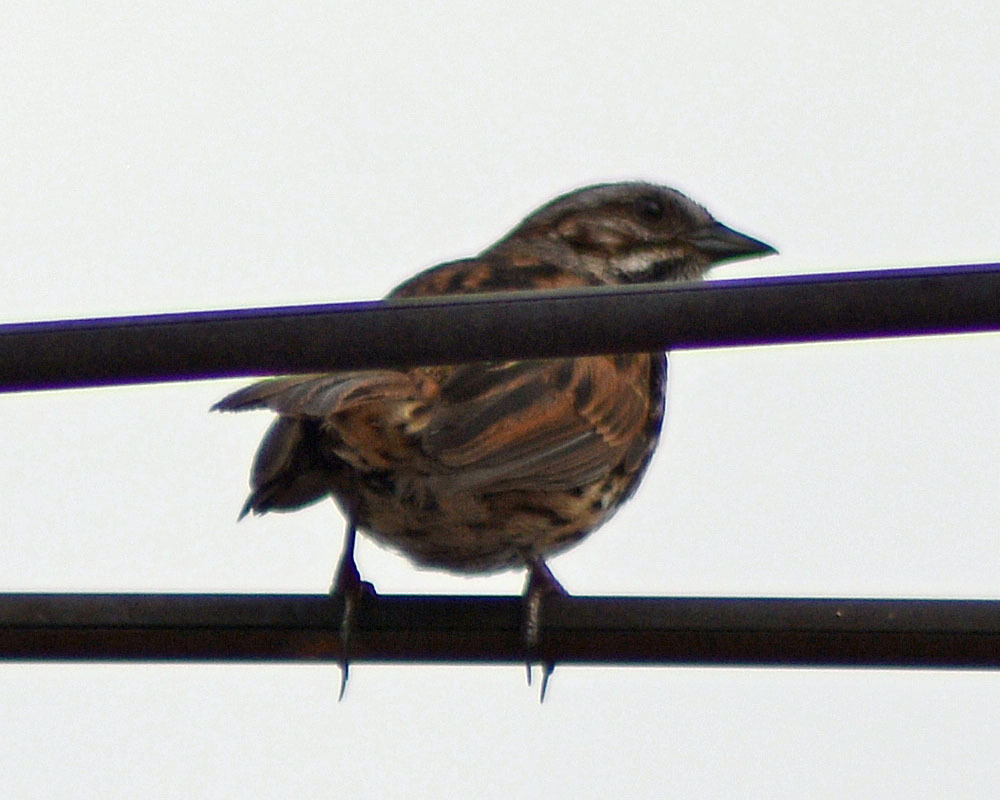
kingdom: Animalia
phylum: Chordata
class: Aves
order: Passeriformes
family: Passerellidae
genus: Melospiza
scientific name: Melospiza melodia
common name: Song sparrow
